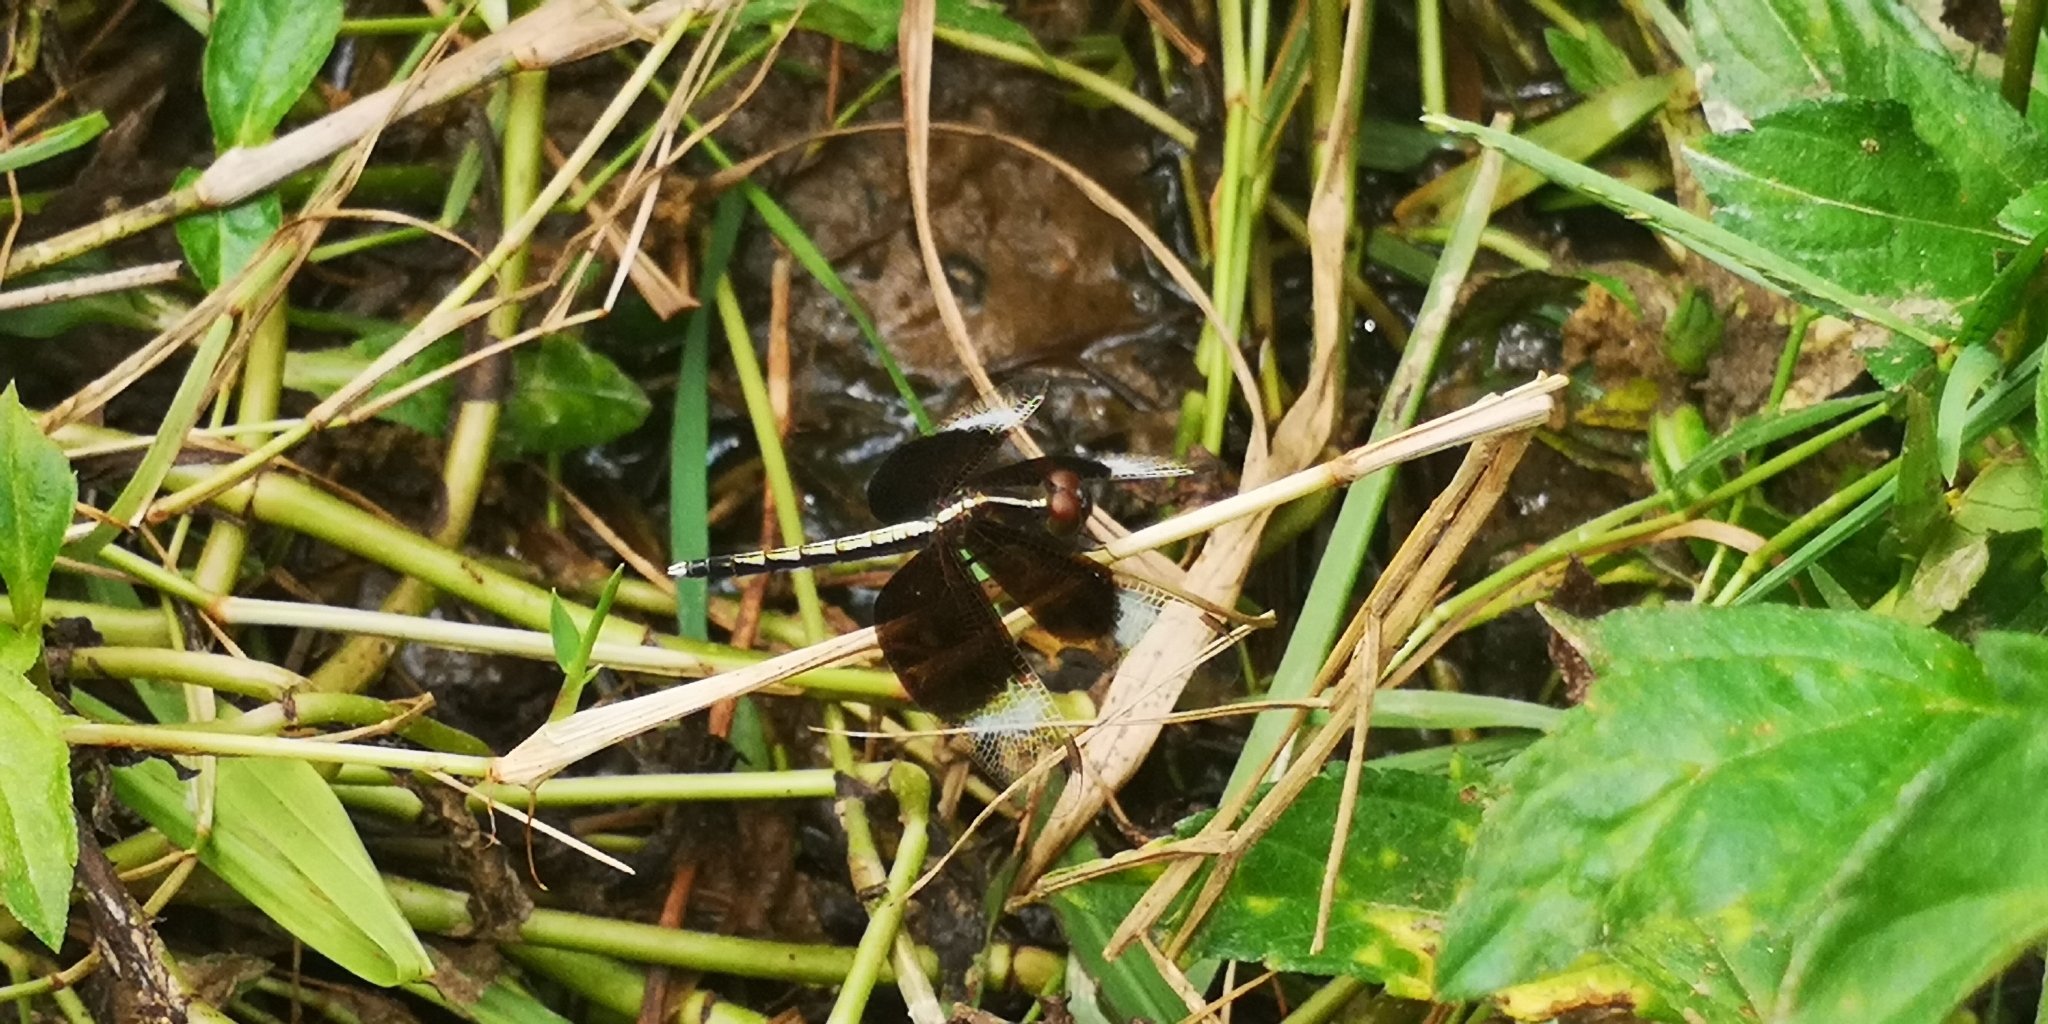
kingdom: Animalia
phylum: Arthropoda
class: Insecta
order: Odonata
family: Libellulidae
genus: Neurothemis
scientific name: Neurothemis tullia
